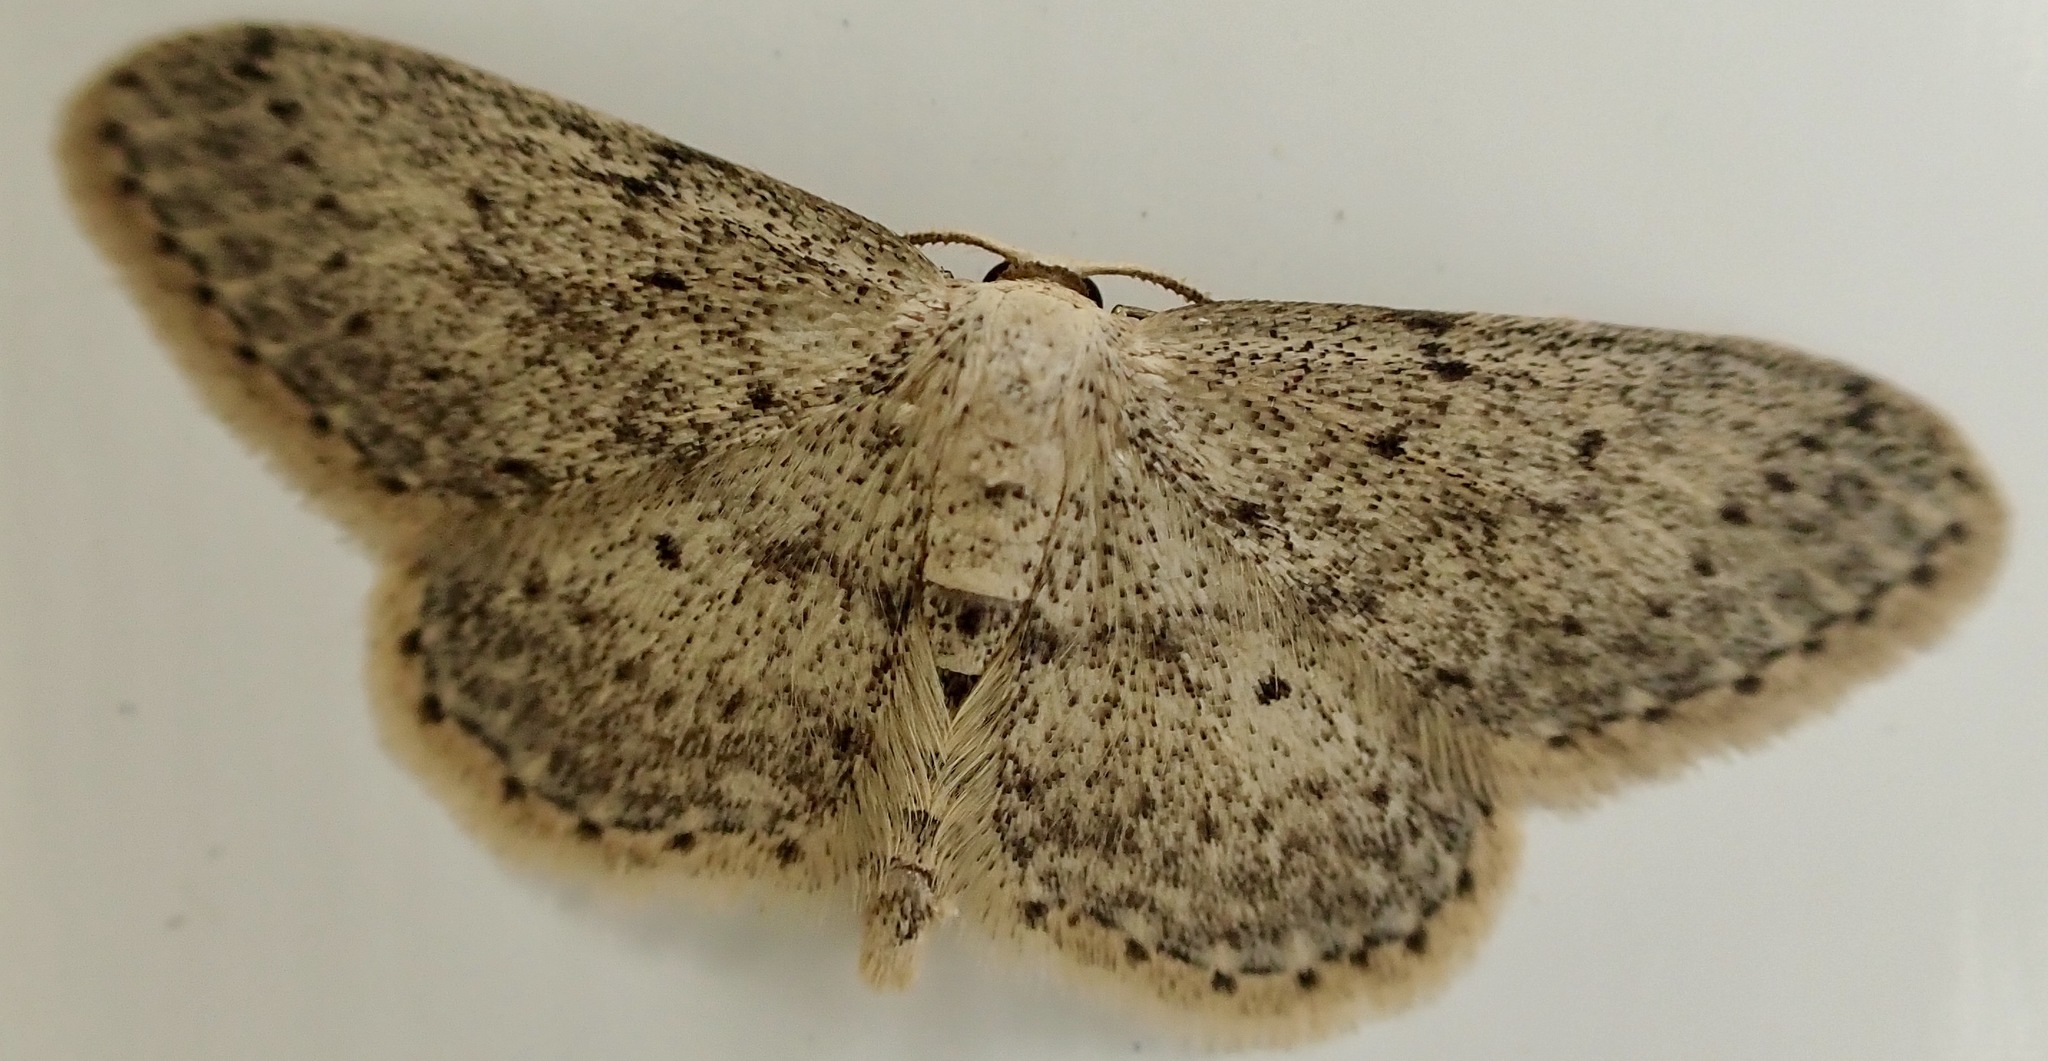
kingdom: Animalia
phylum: Arthropoda
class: Insecta
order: Lepidoptera
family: Geometridae
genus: Idaea
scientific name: Idaea seriata
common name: Small dusty wave
